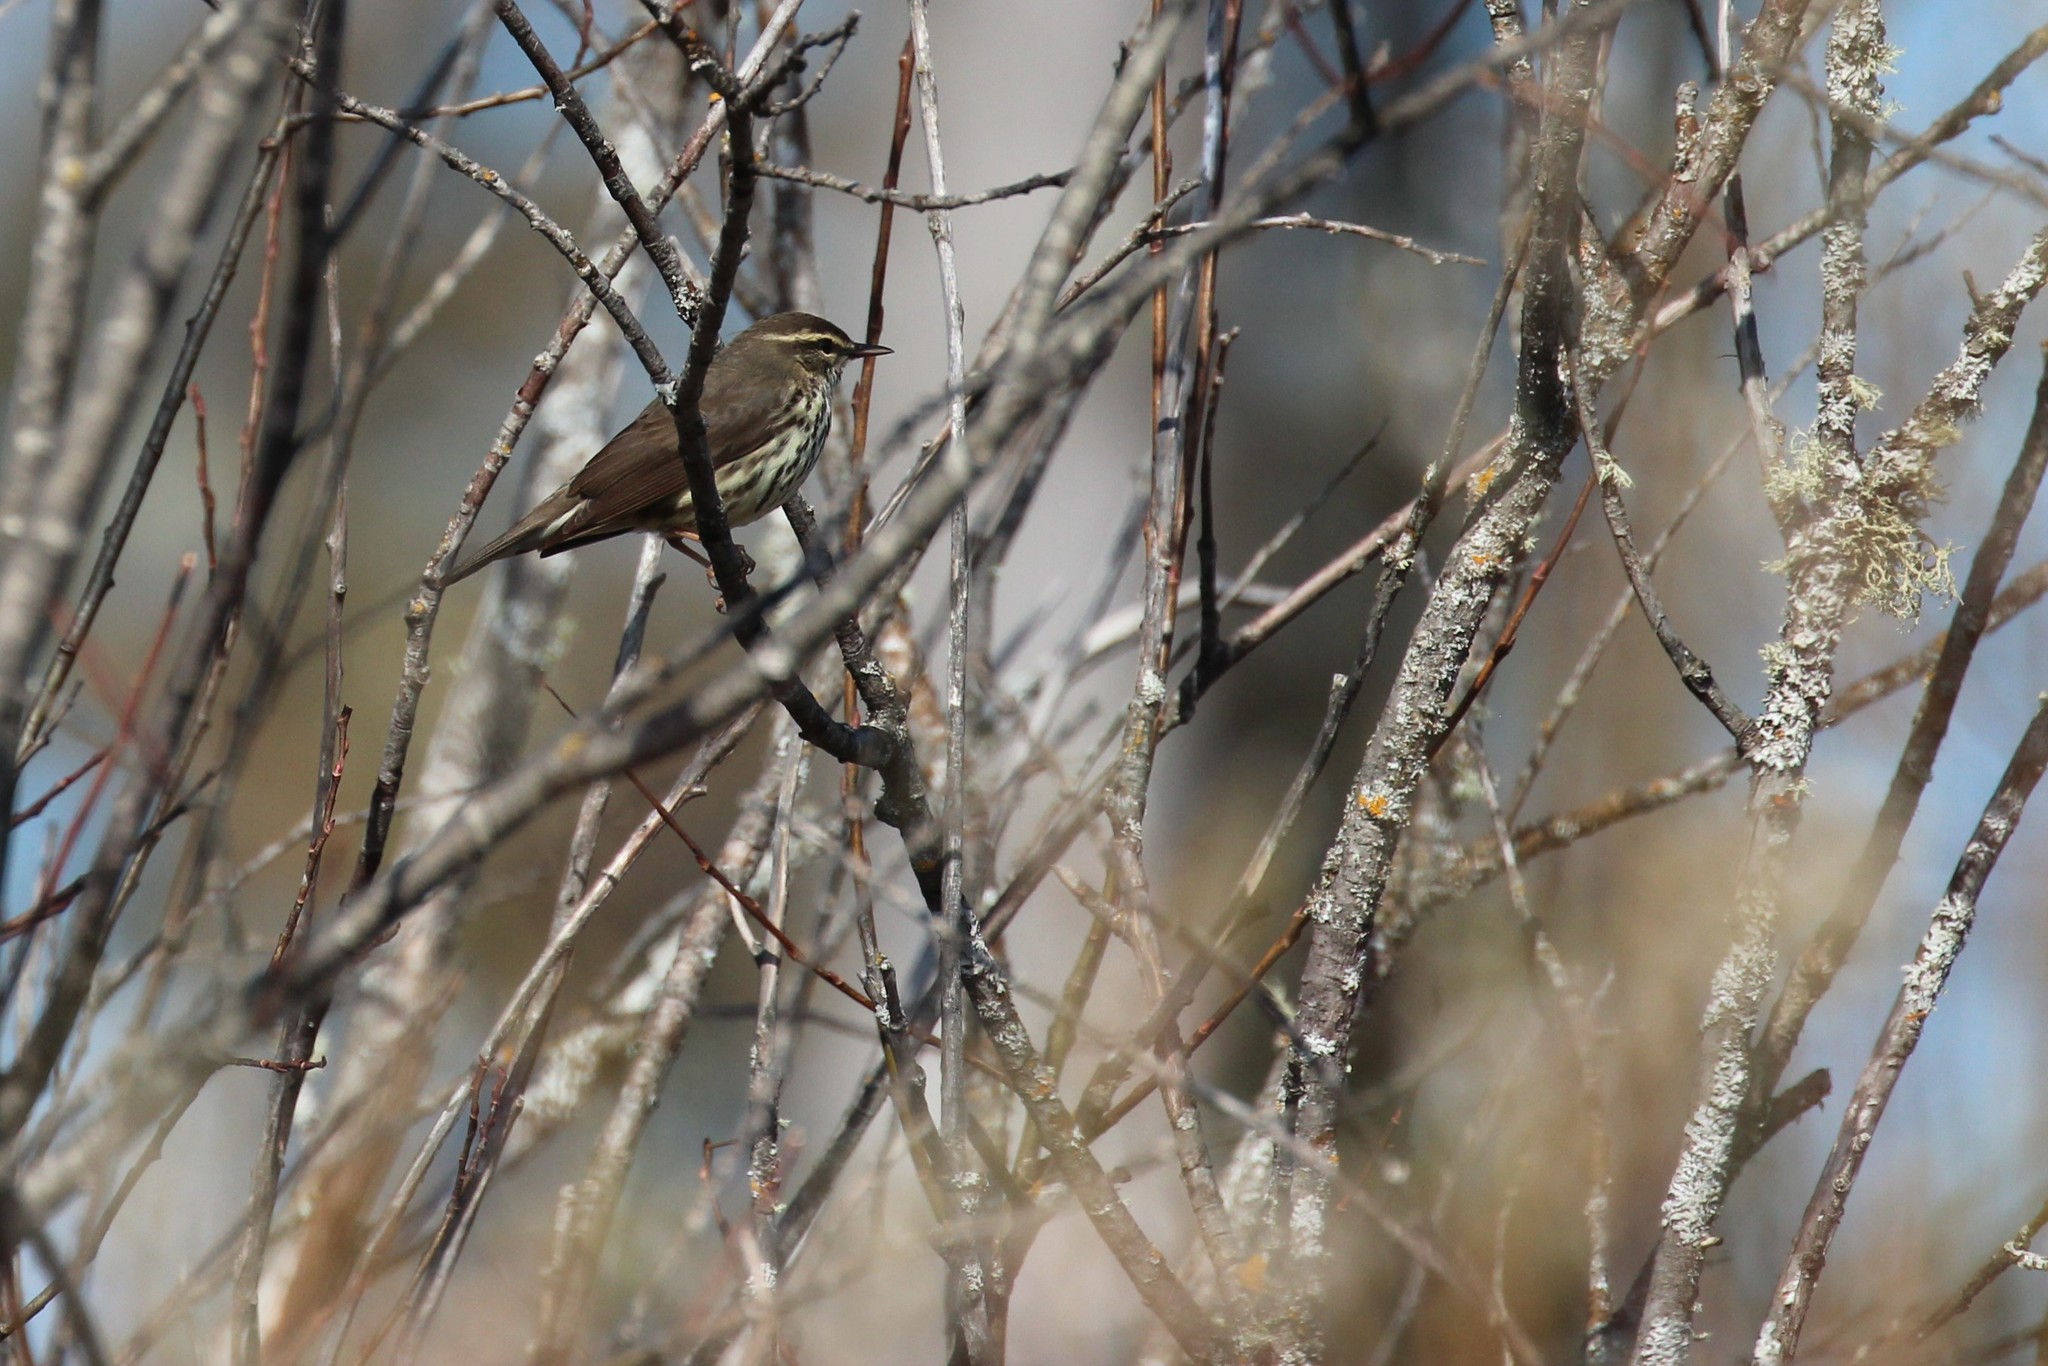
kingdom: Animalia
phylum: Chordata
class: Aves
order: Passeriformes
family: Parulidae
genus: Parkesia
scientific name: Parkesia noveboracensis
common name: Northern waterthrush
